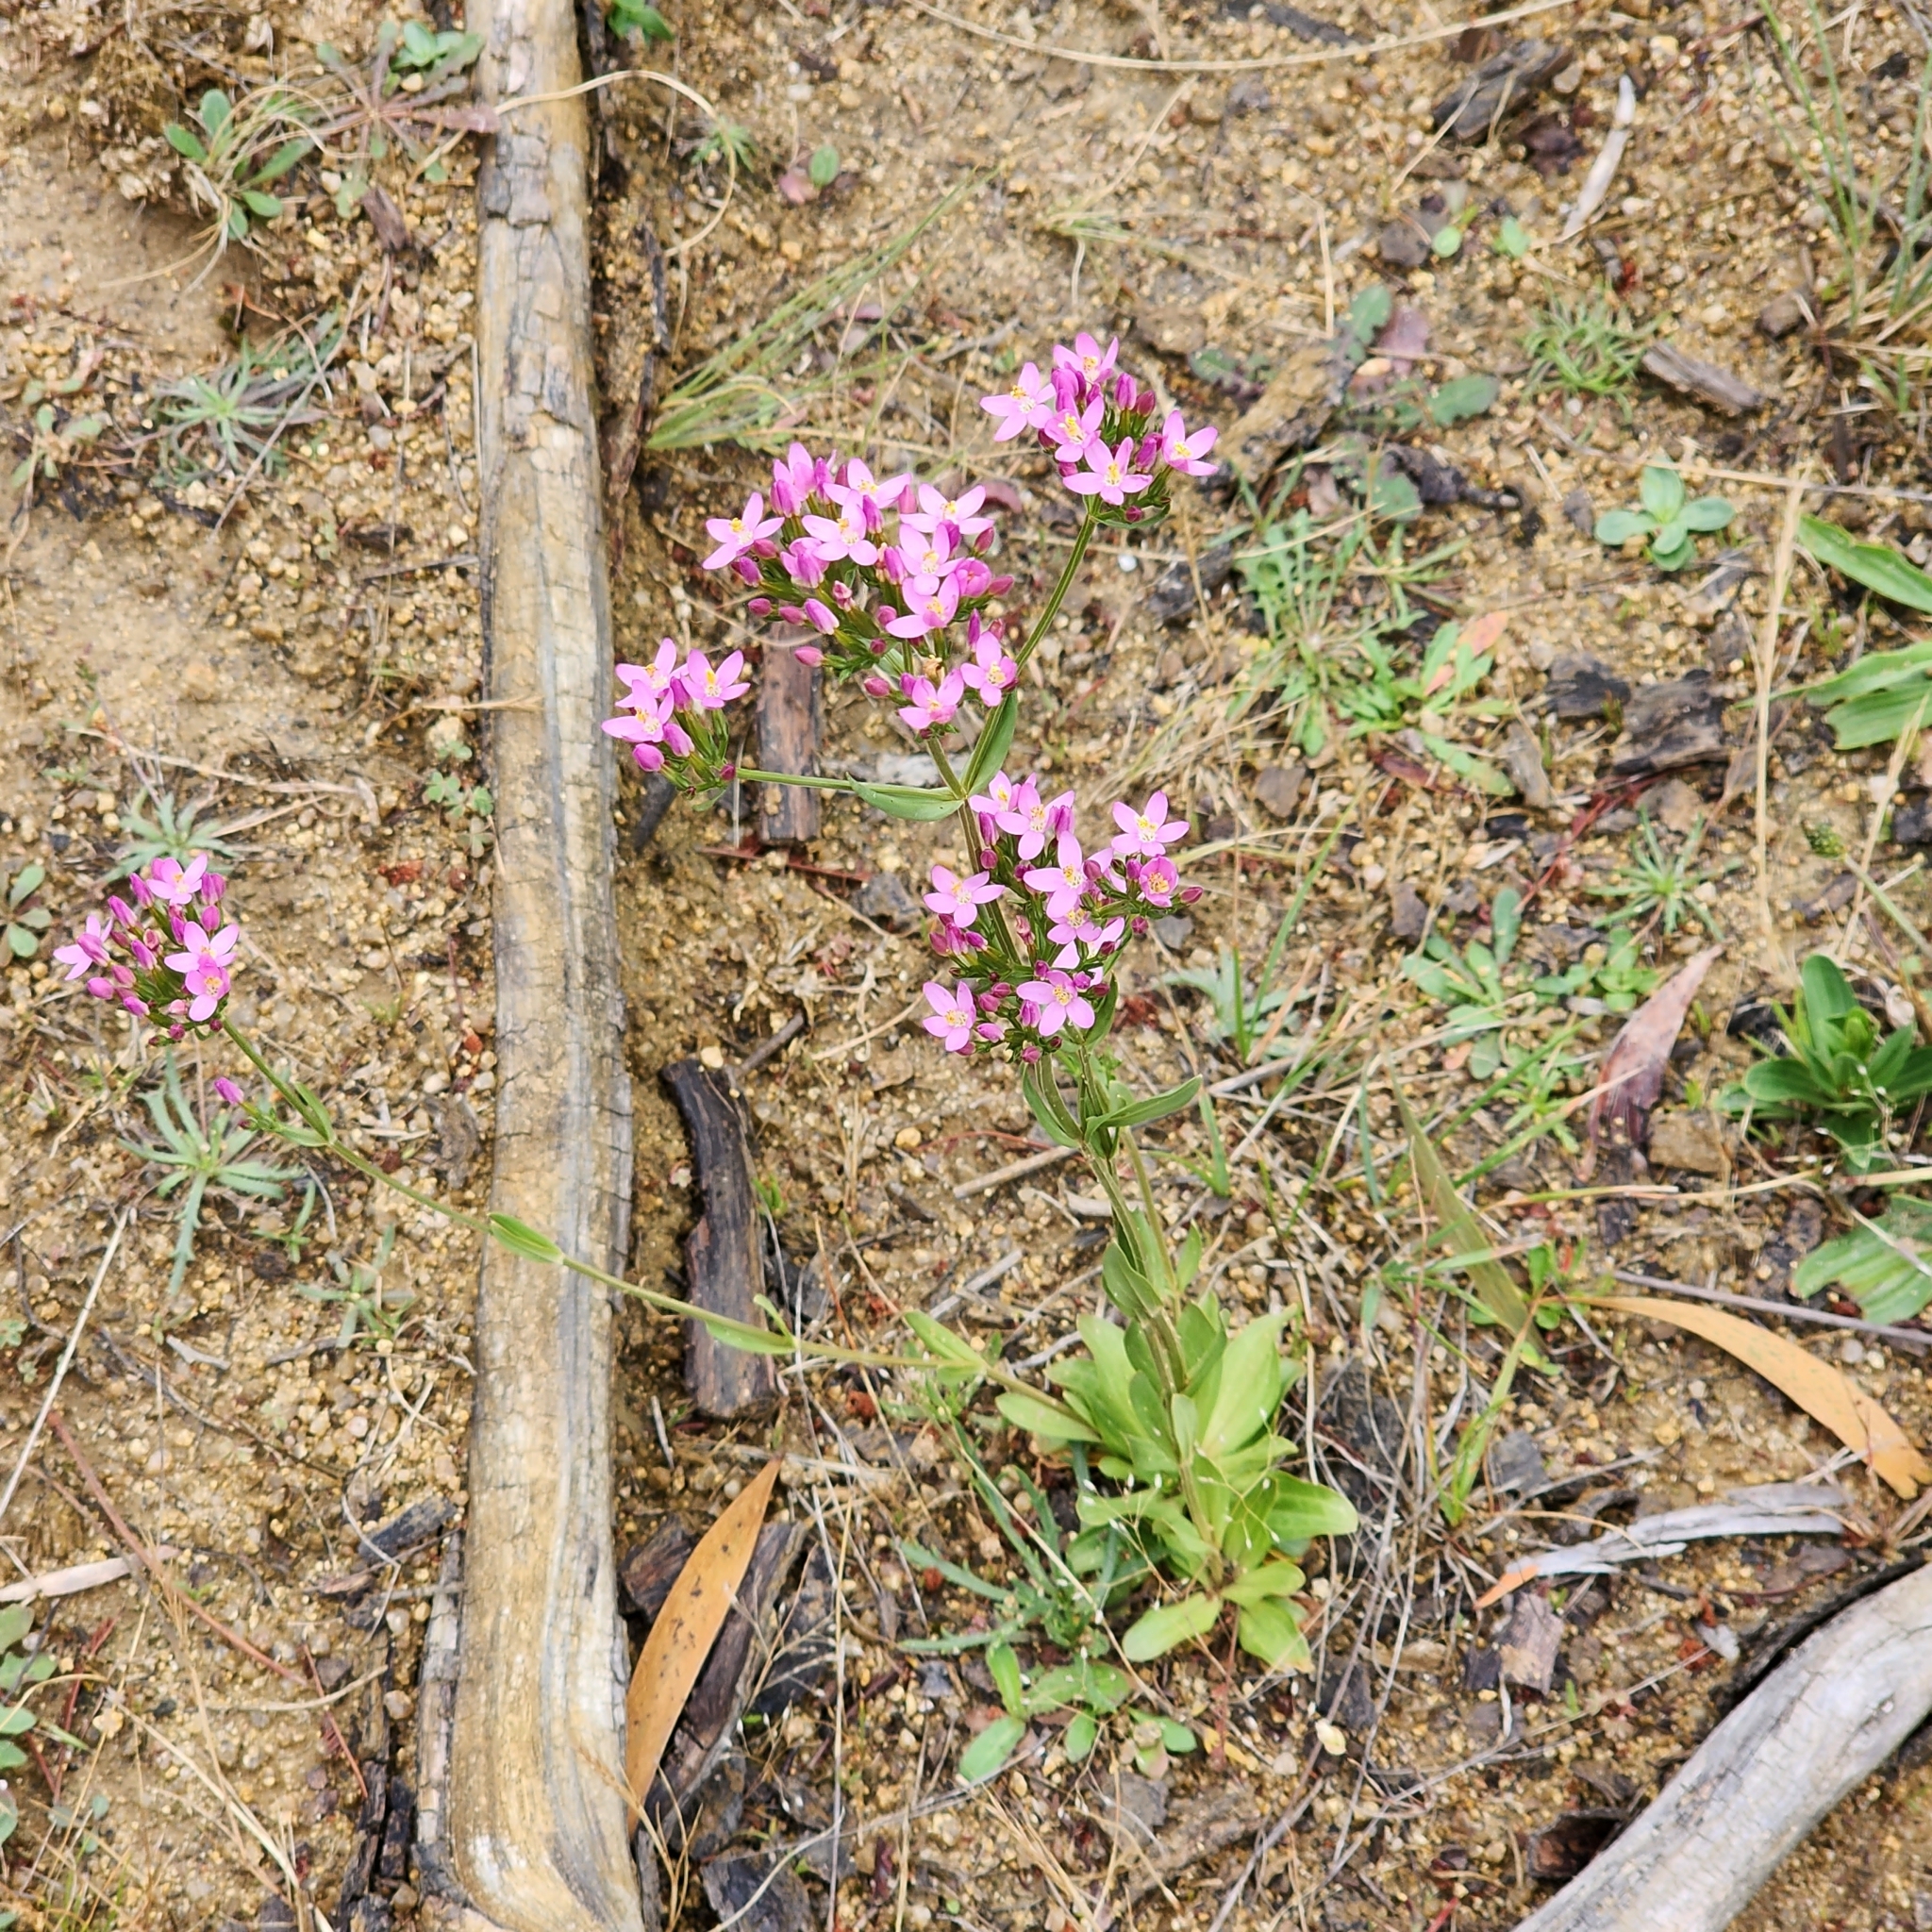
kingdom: Plantae
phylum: Tracheophyta
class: Magnoliopsida
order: Gentianales
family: Gentianaceae
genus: Centaurium
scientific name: Centaurium erythraea
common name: Common centaury
